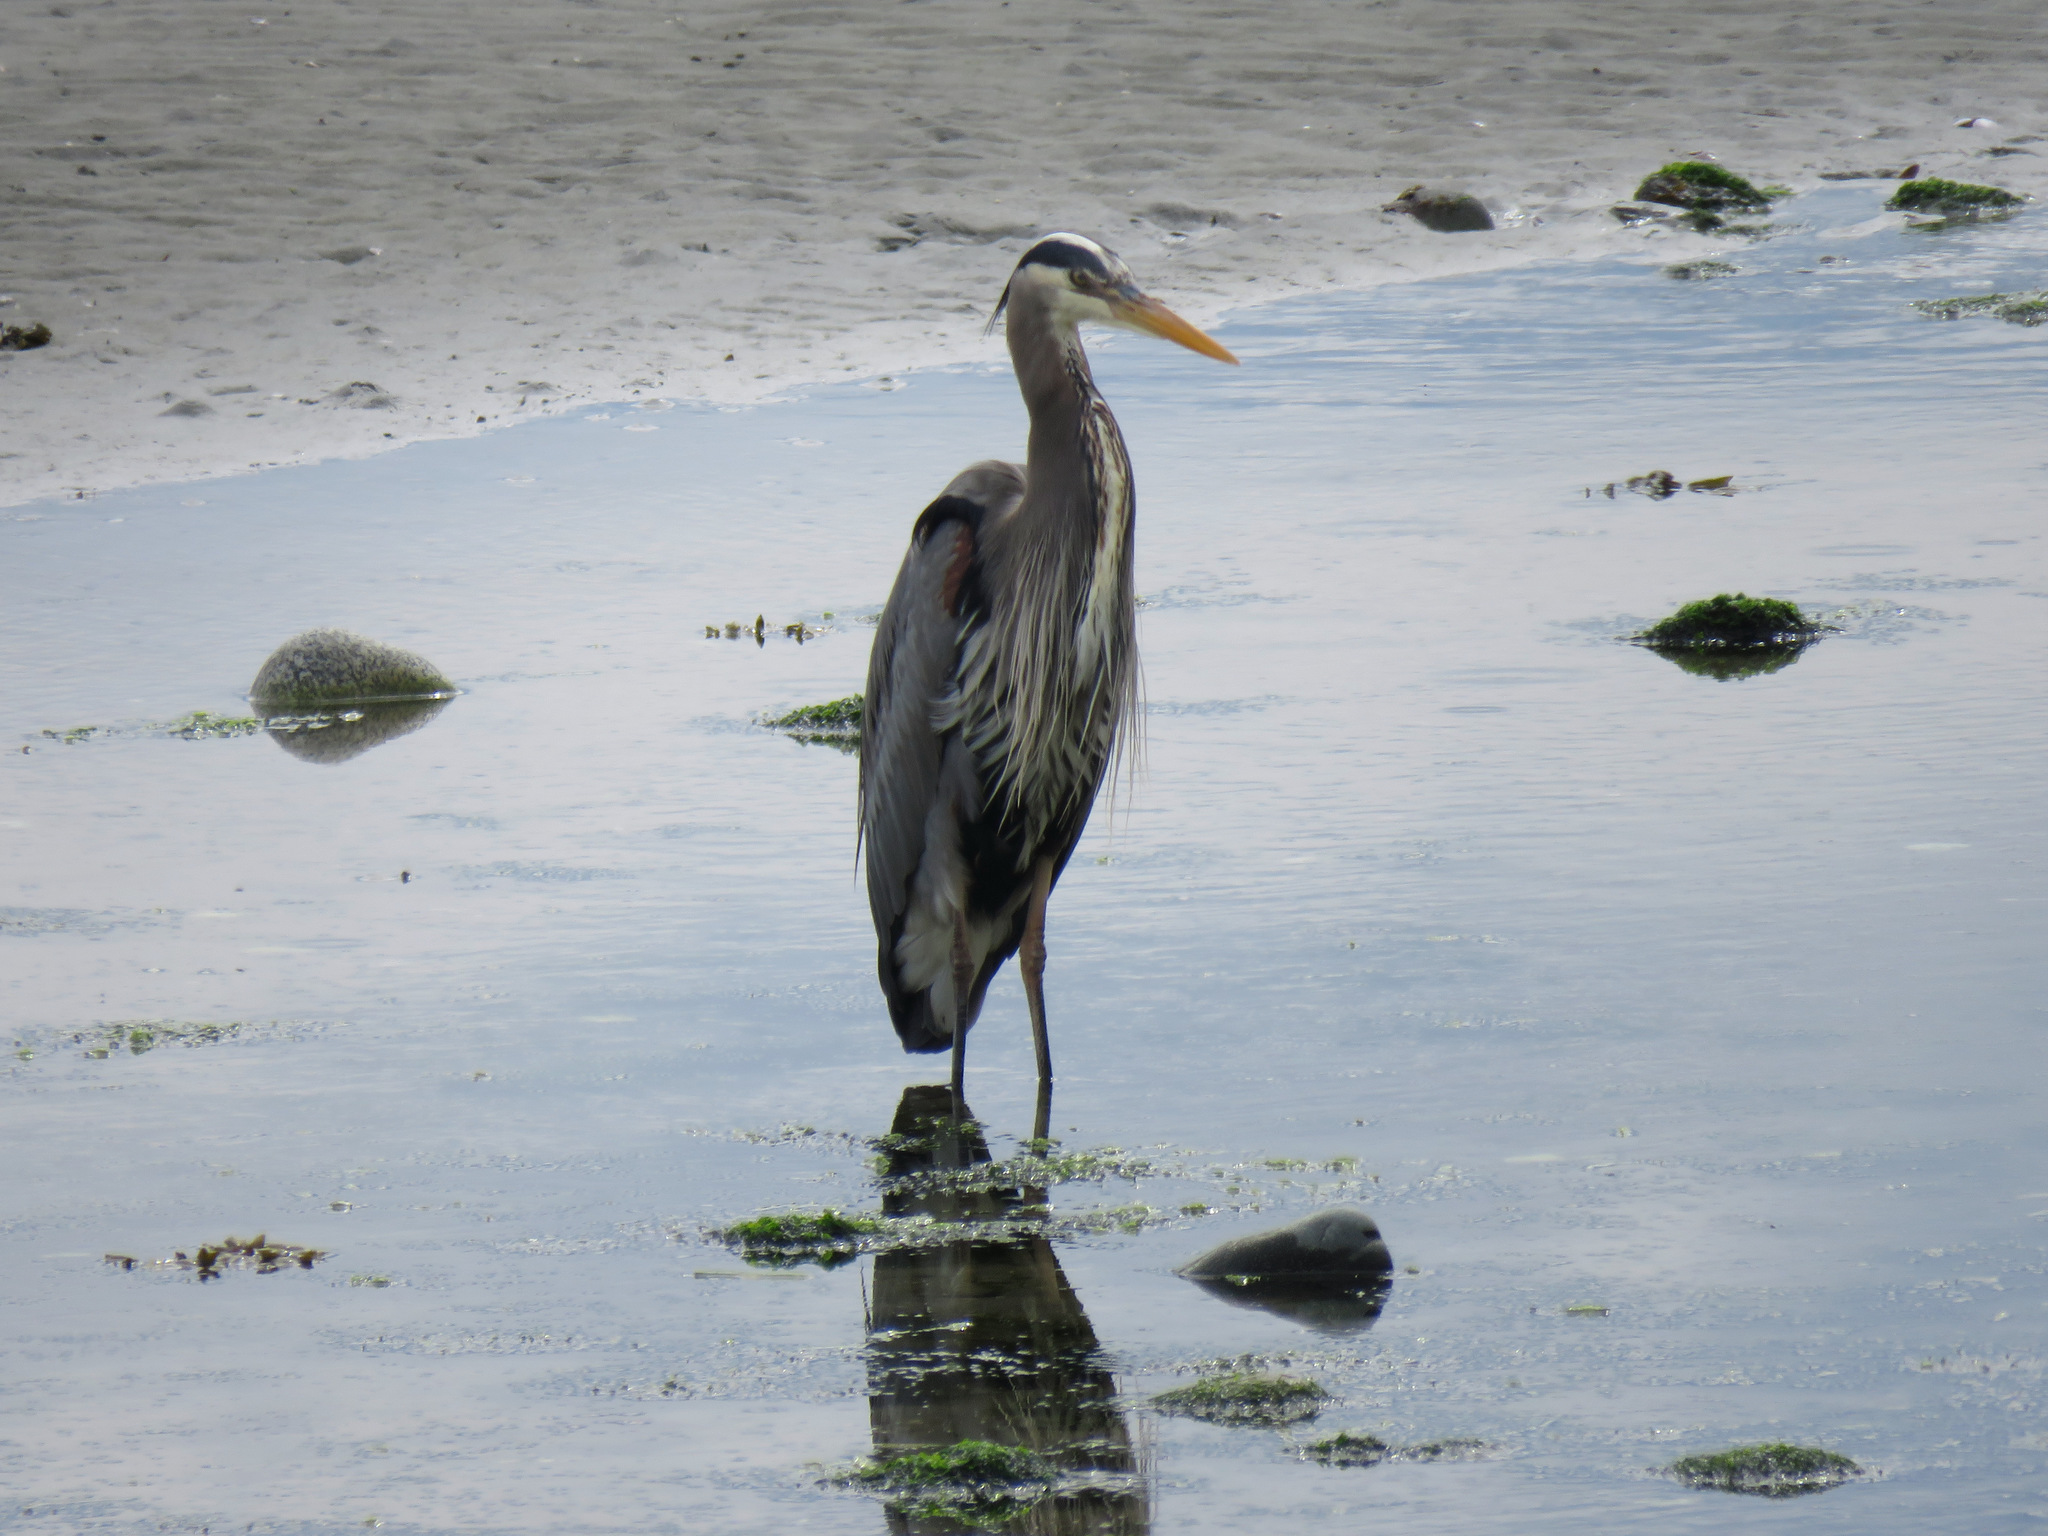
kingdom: Animalia
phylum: Chordata
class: Aves
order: Pelecaniformes
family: Ardeidae
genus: Ardea
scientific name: Ardea herodias
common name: Great blue heron
